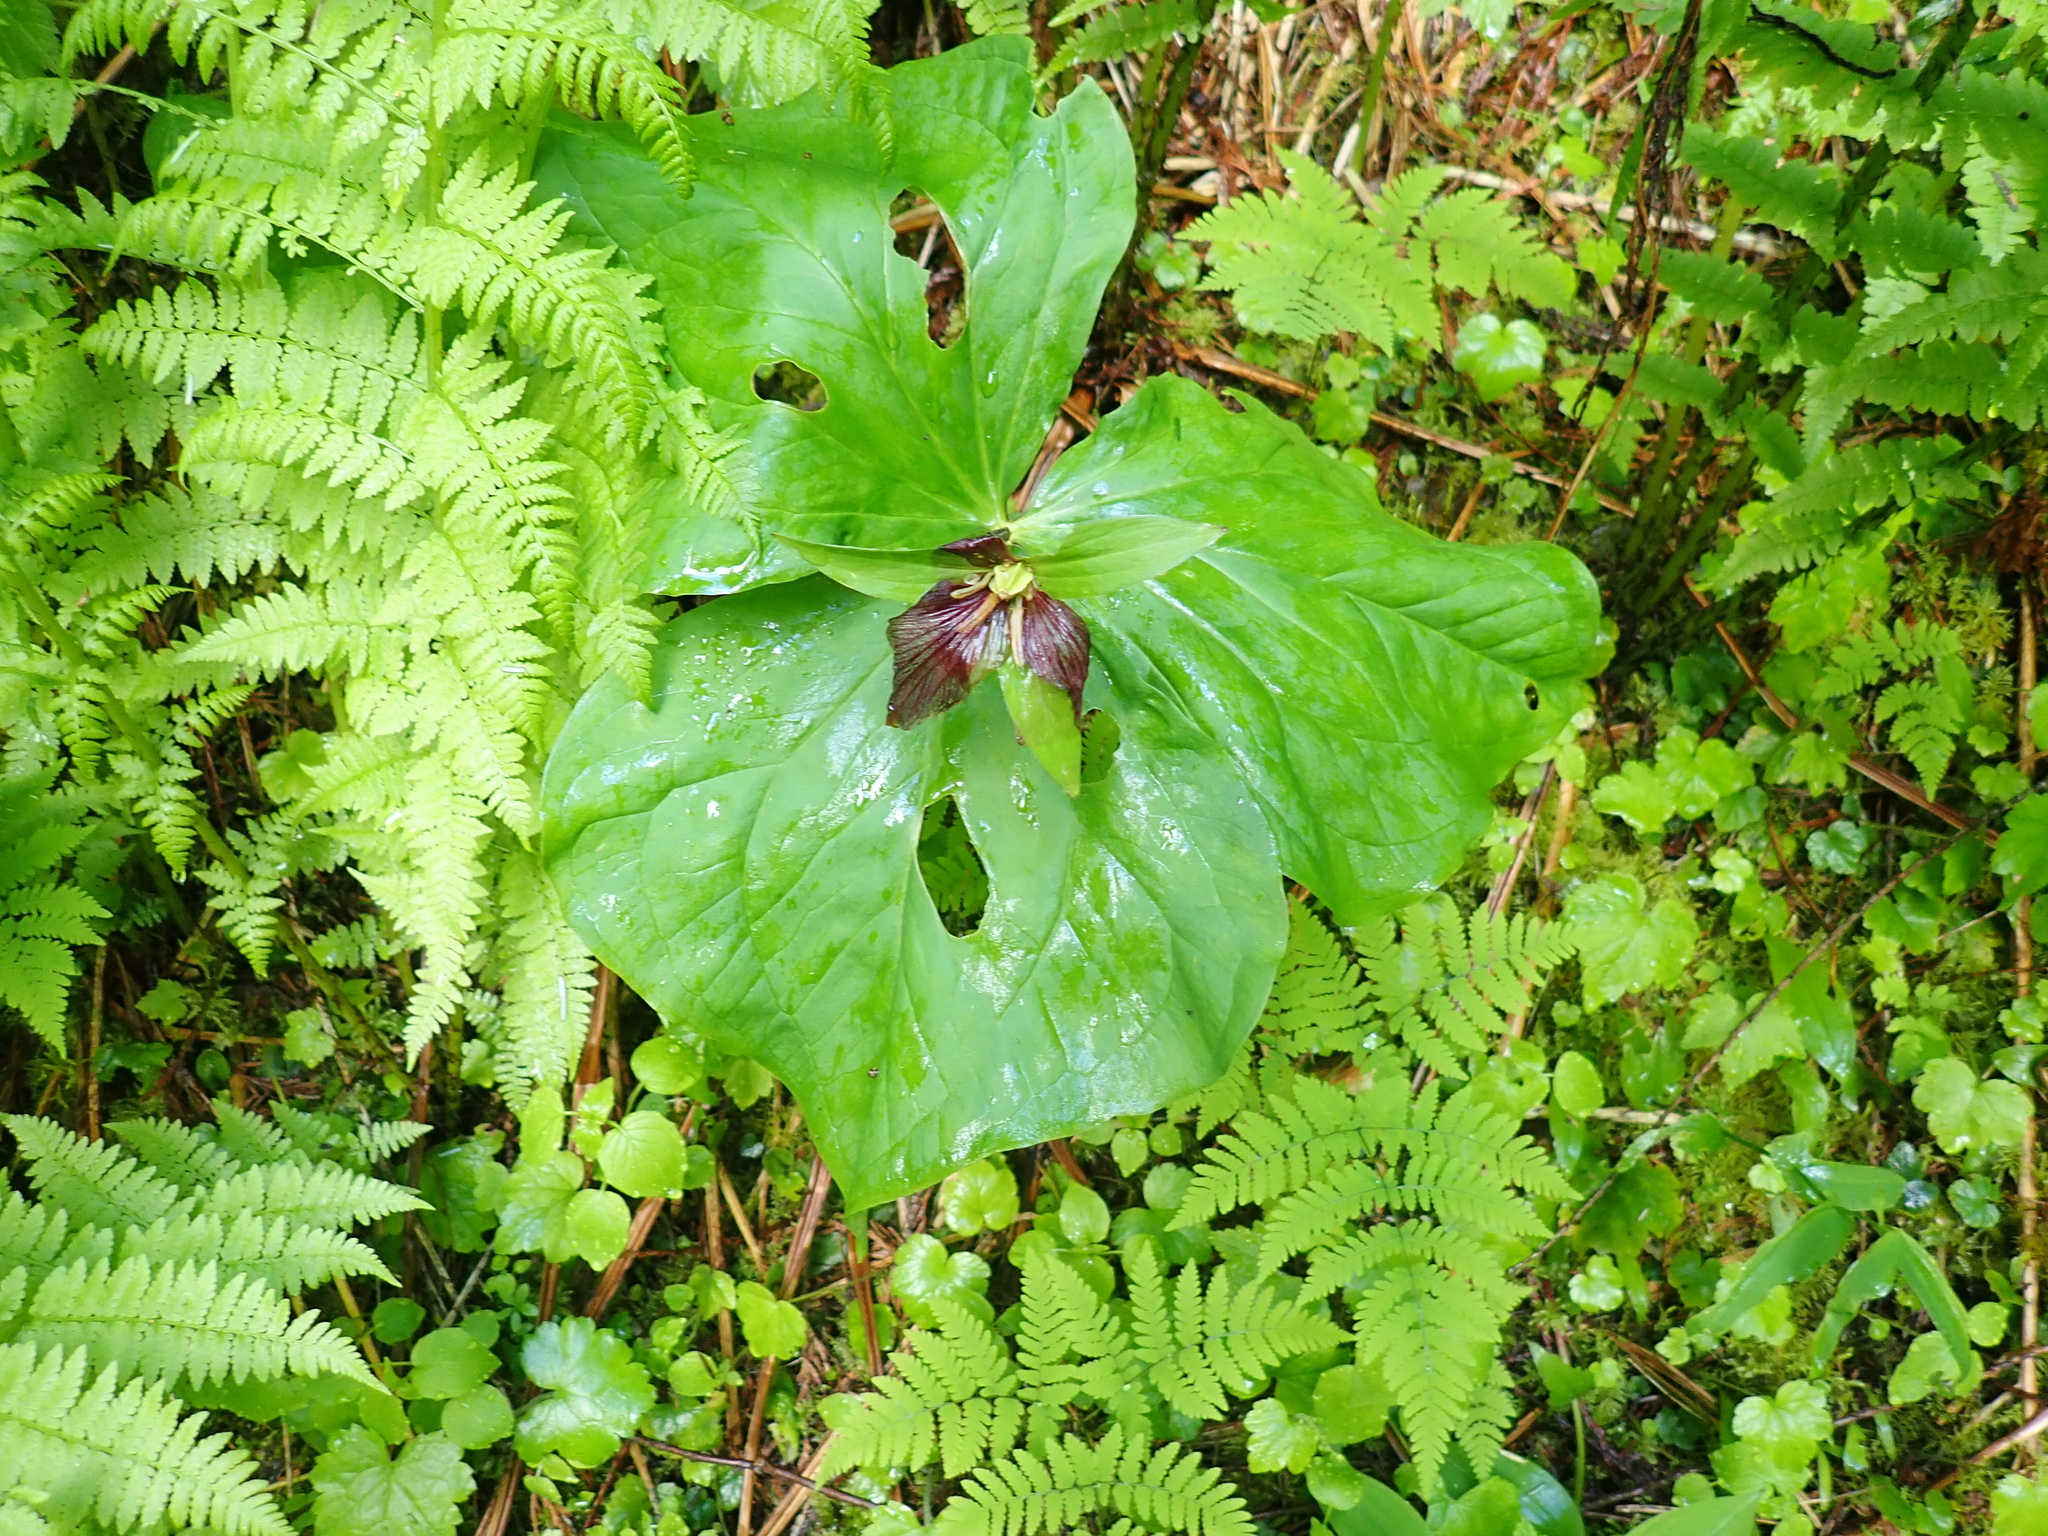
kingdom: Plantae
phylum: Tracheophyta
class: Liliopsida
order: Liliales
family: Melanthiaceae
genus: Trillium
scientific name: Trillium ovatum
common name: Pacific trillium
